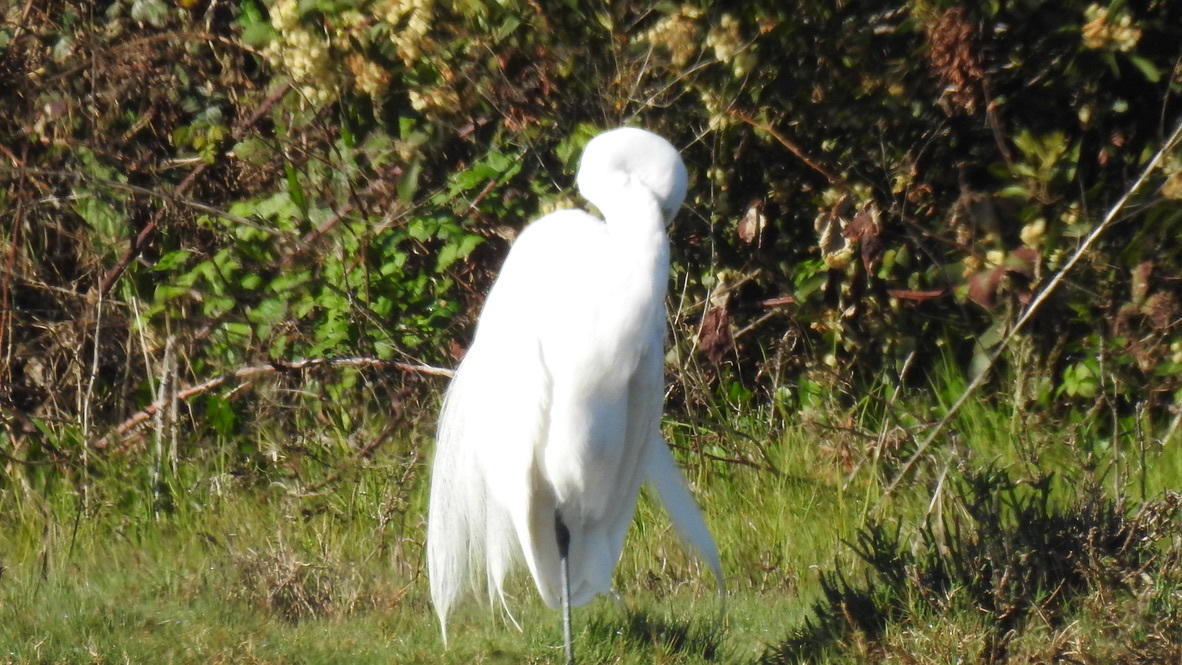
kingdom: Animalia
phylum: Chordata
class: Aves
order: Pelecaniformes
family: Ardeidae
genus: Ardea
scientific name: Ardea alba
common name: Great egret
